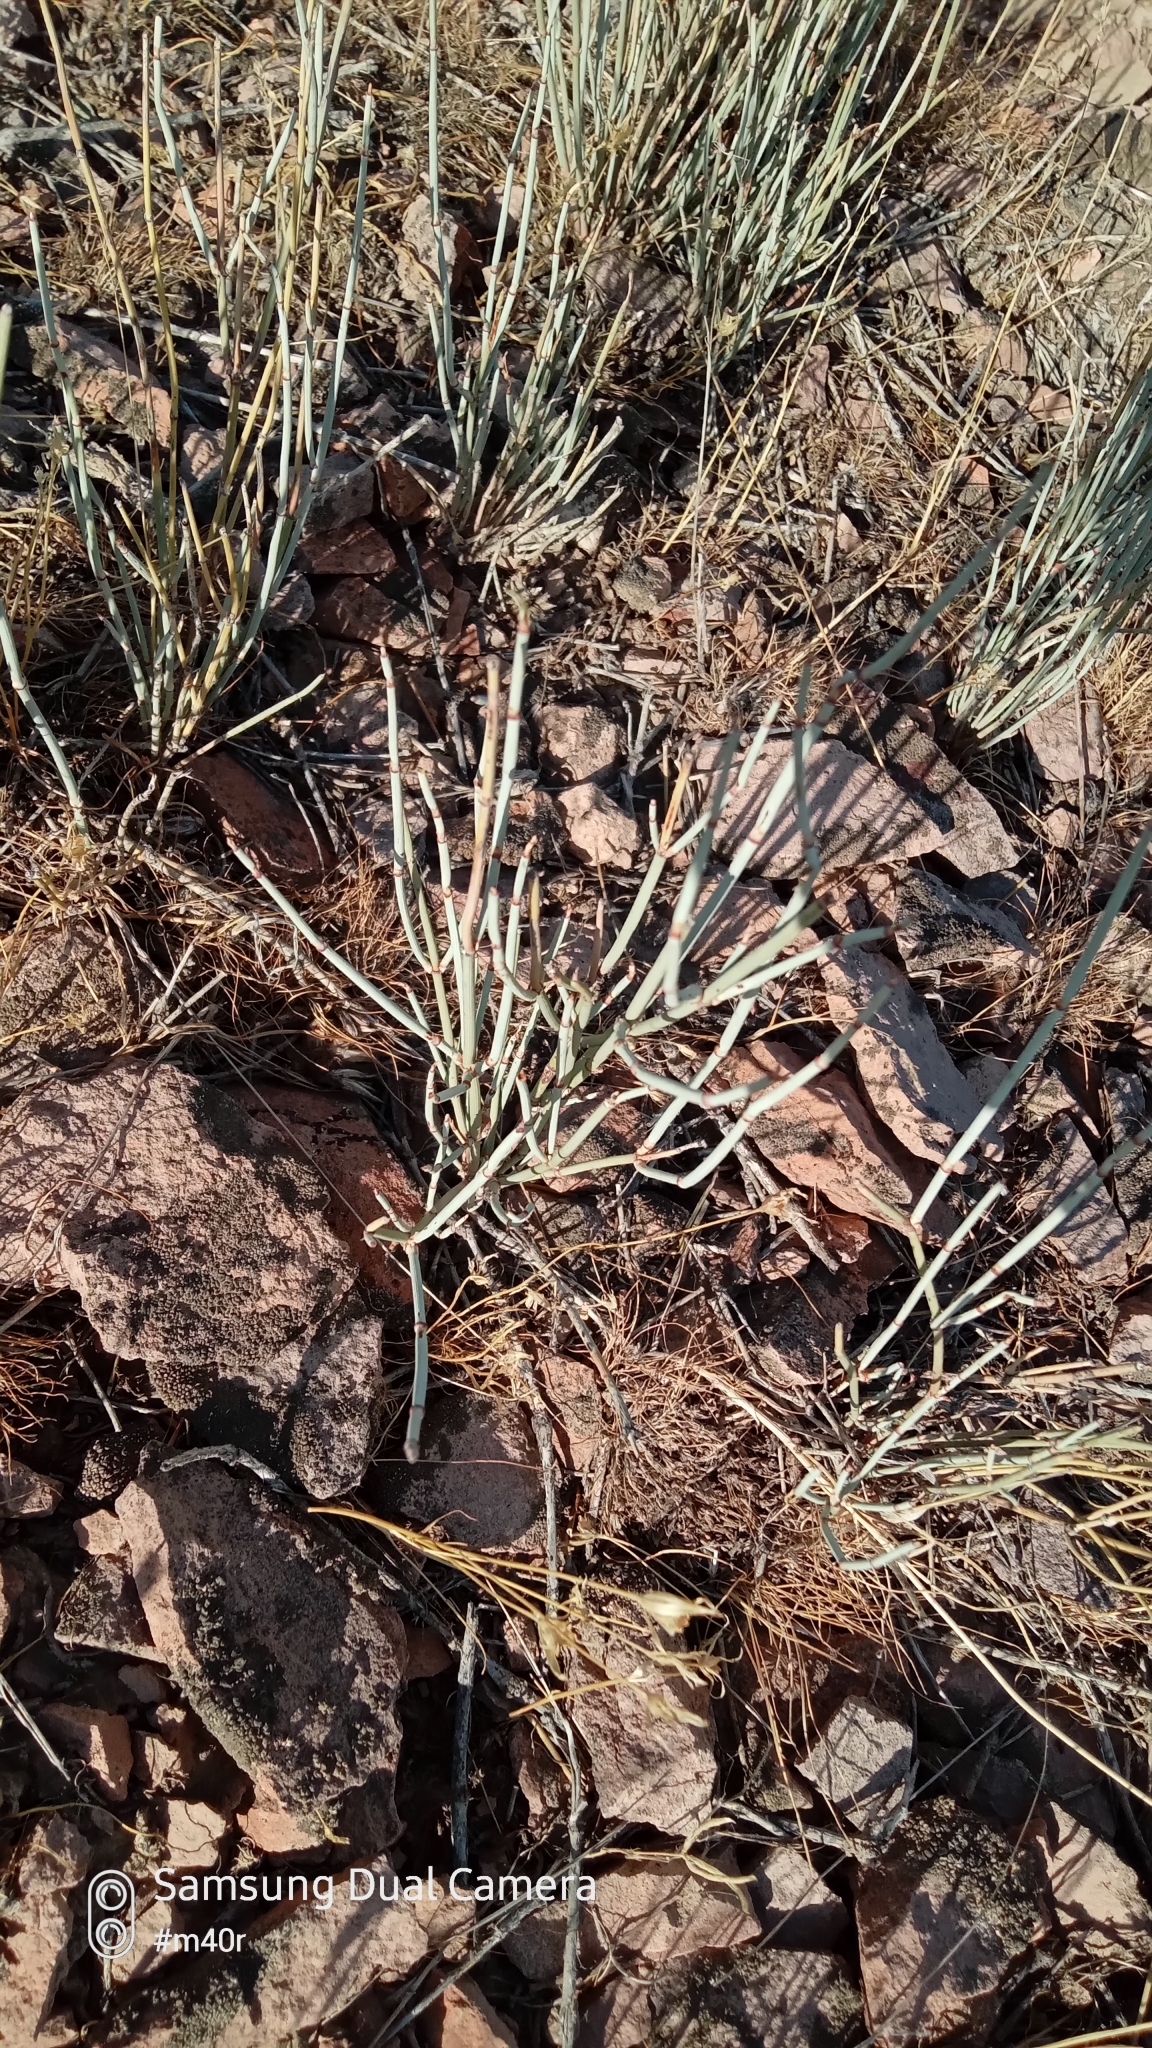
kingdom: Plantae
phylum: Tracheophyta
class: Gnetopsida
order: Ephedrales
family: Ephedraceae
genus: Ephedra
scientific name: Ephedra distachya
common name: Sea grape
